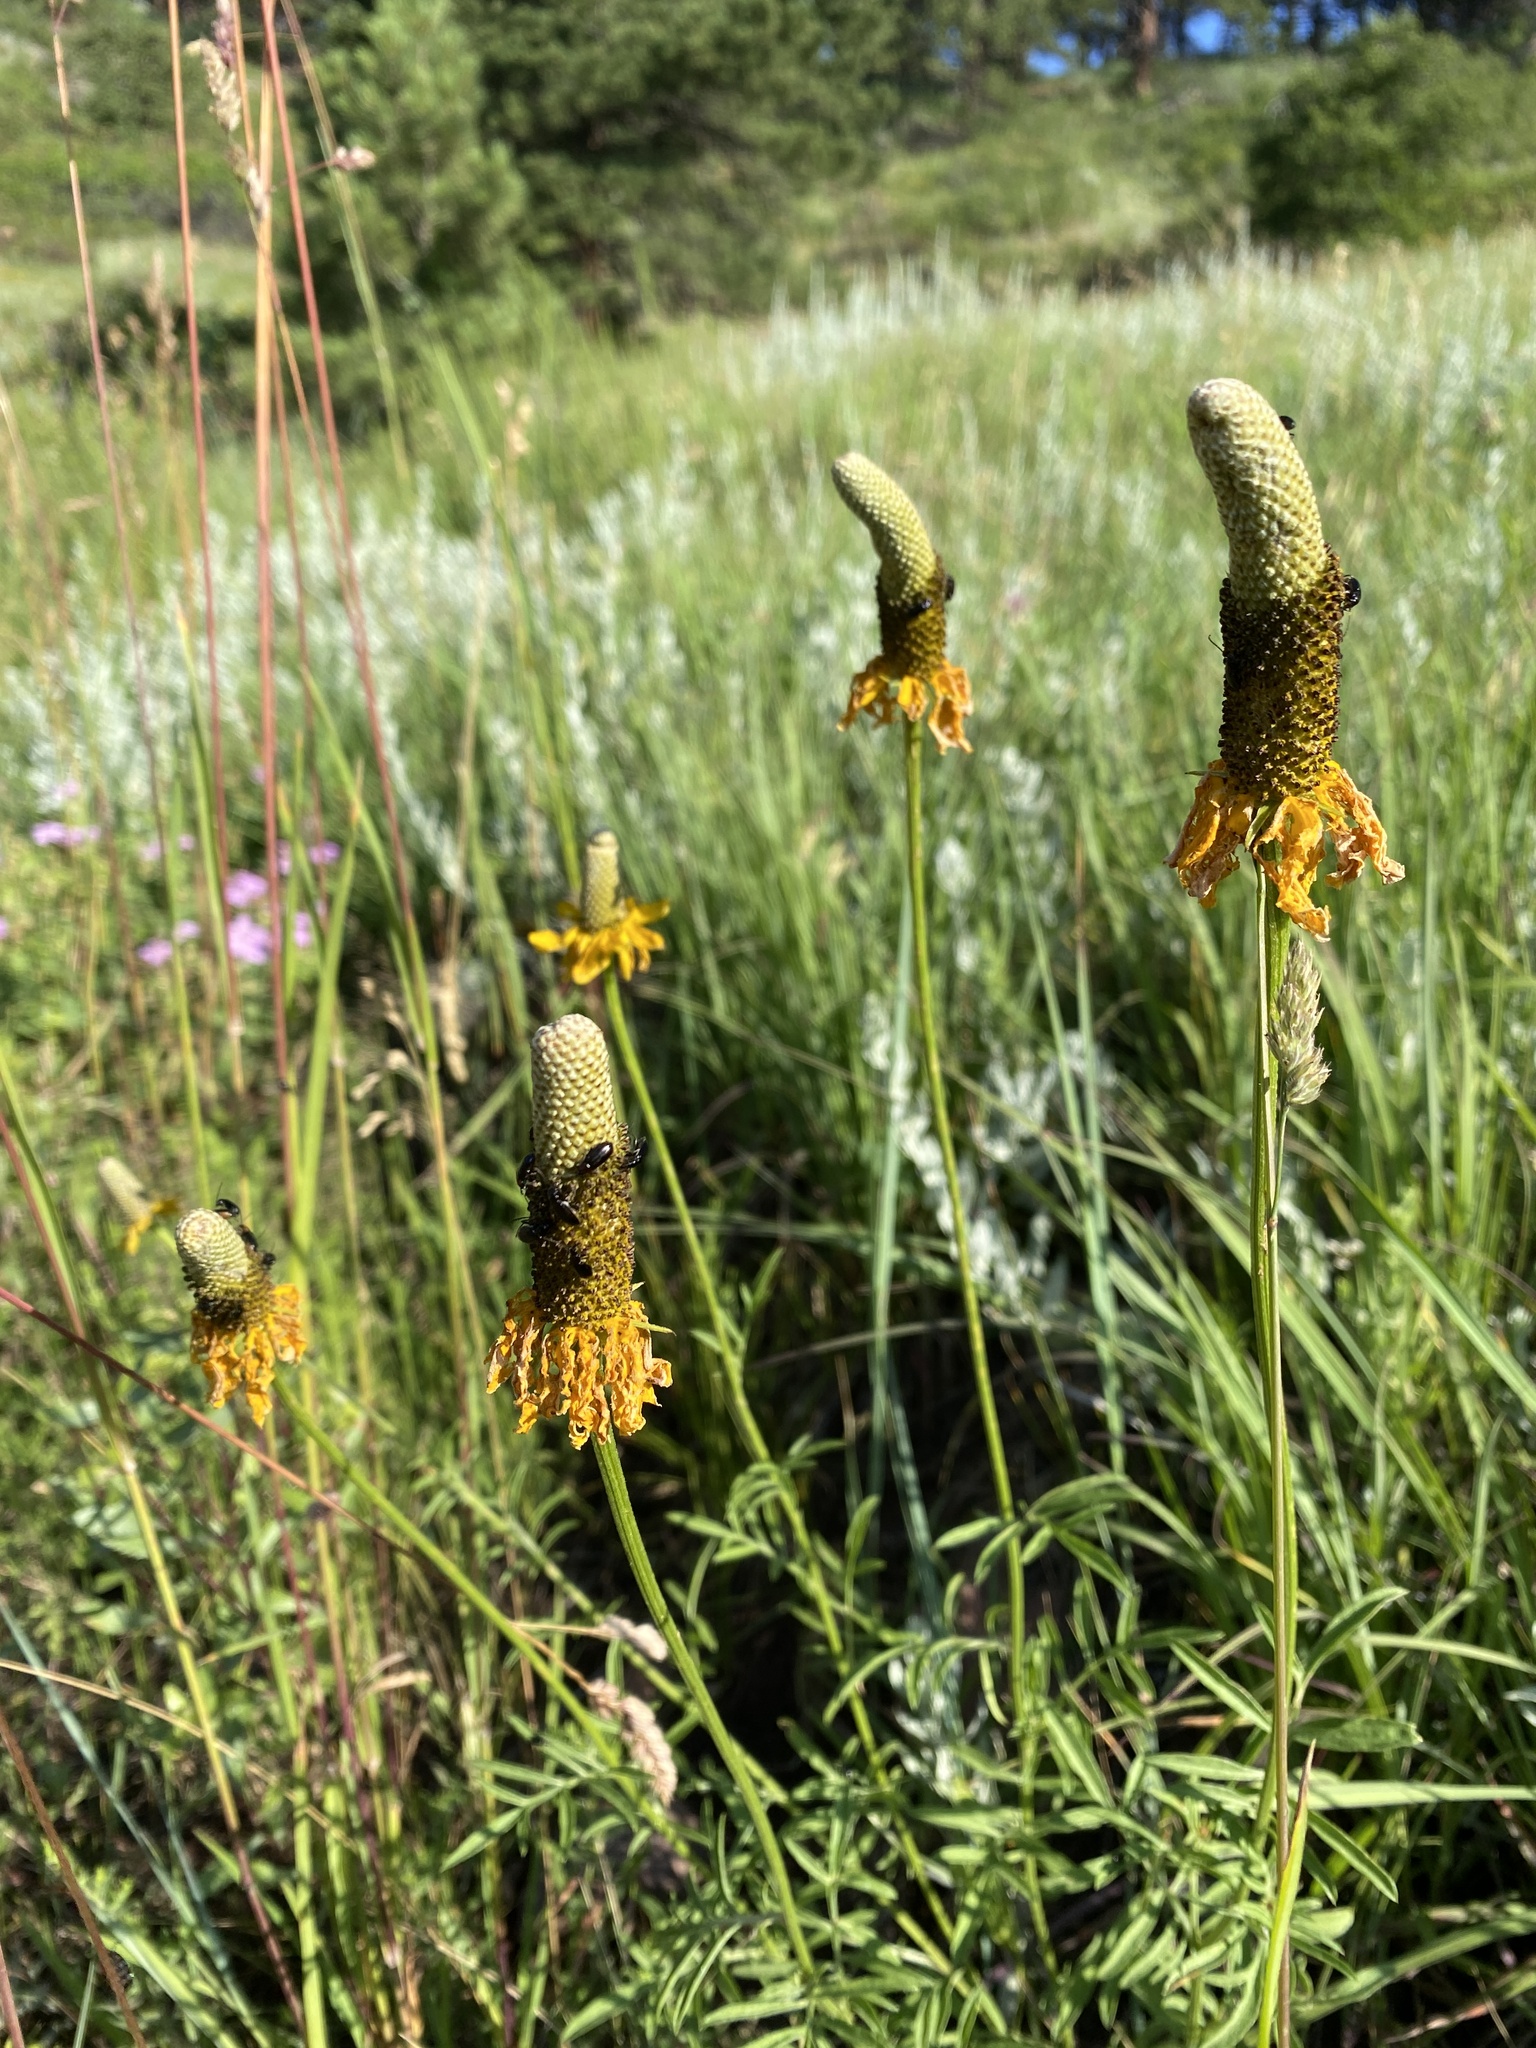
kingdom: Plantae
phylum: Tracheophyta
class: Magnoliopsida
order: Asterales
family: Asteraceae
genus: Ratibida
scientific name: Ratibida columnifera
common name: Prairie coneflower
